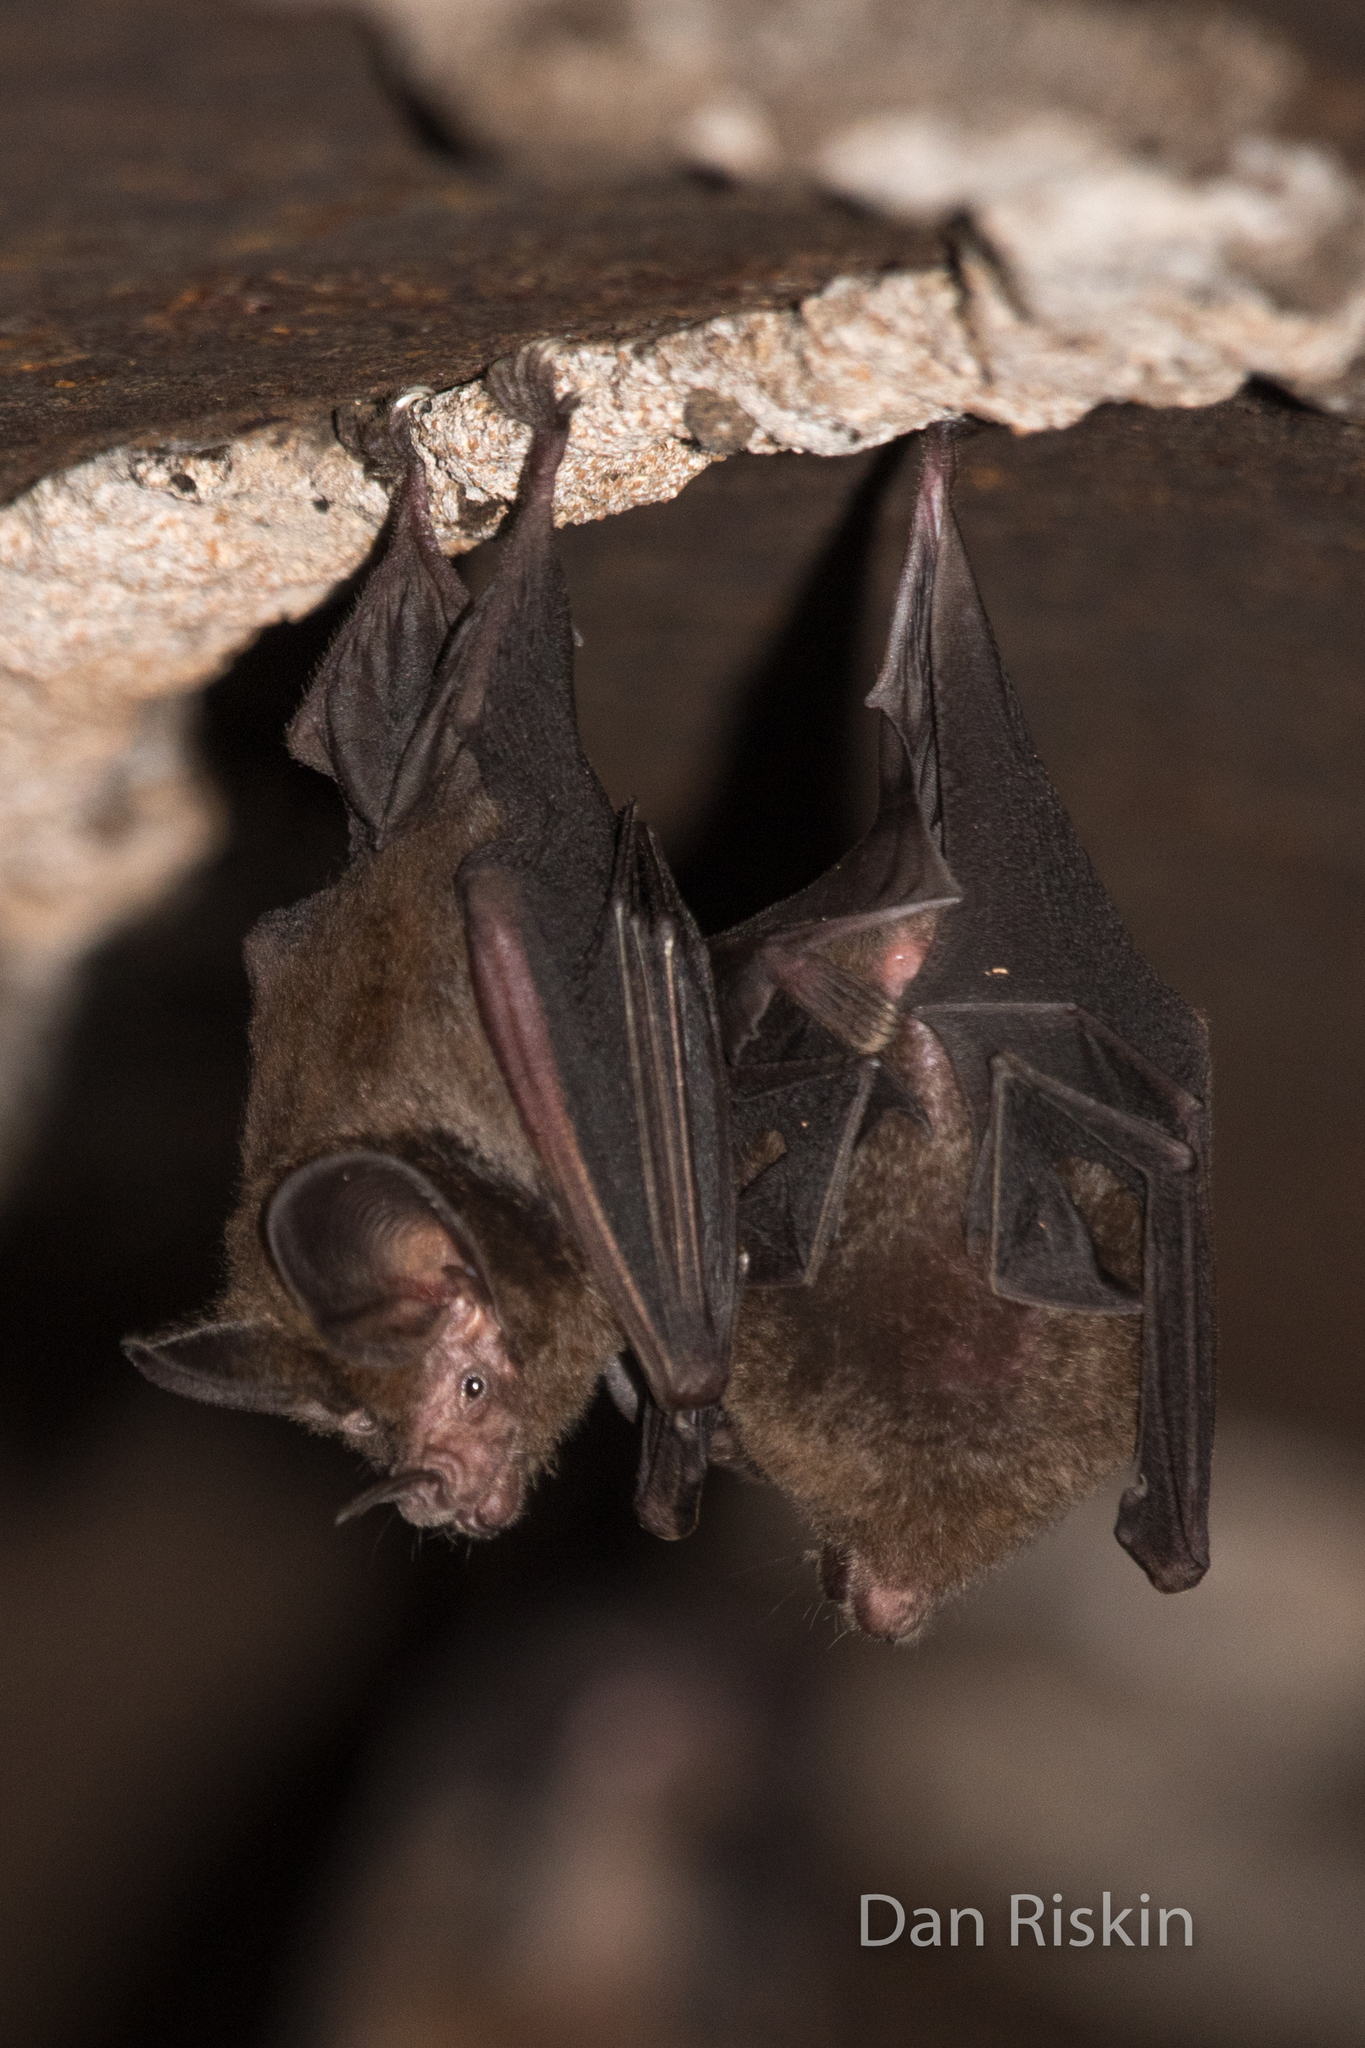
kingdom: Animalia
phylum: Chordata
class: Mammalia
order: Chiroptera
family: Phyllostomidae
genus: Micronycteris
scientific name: Micronycteris microtis
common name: Common big-eared bat
